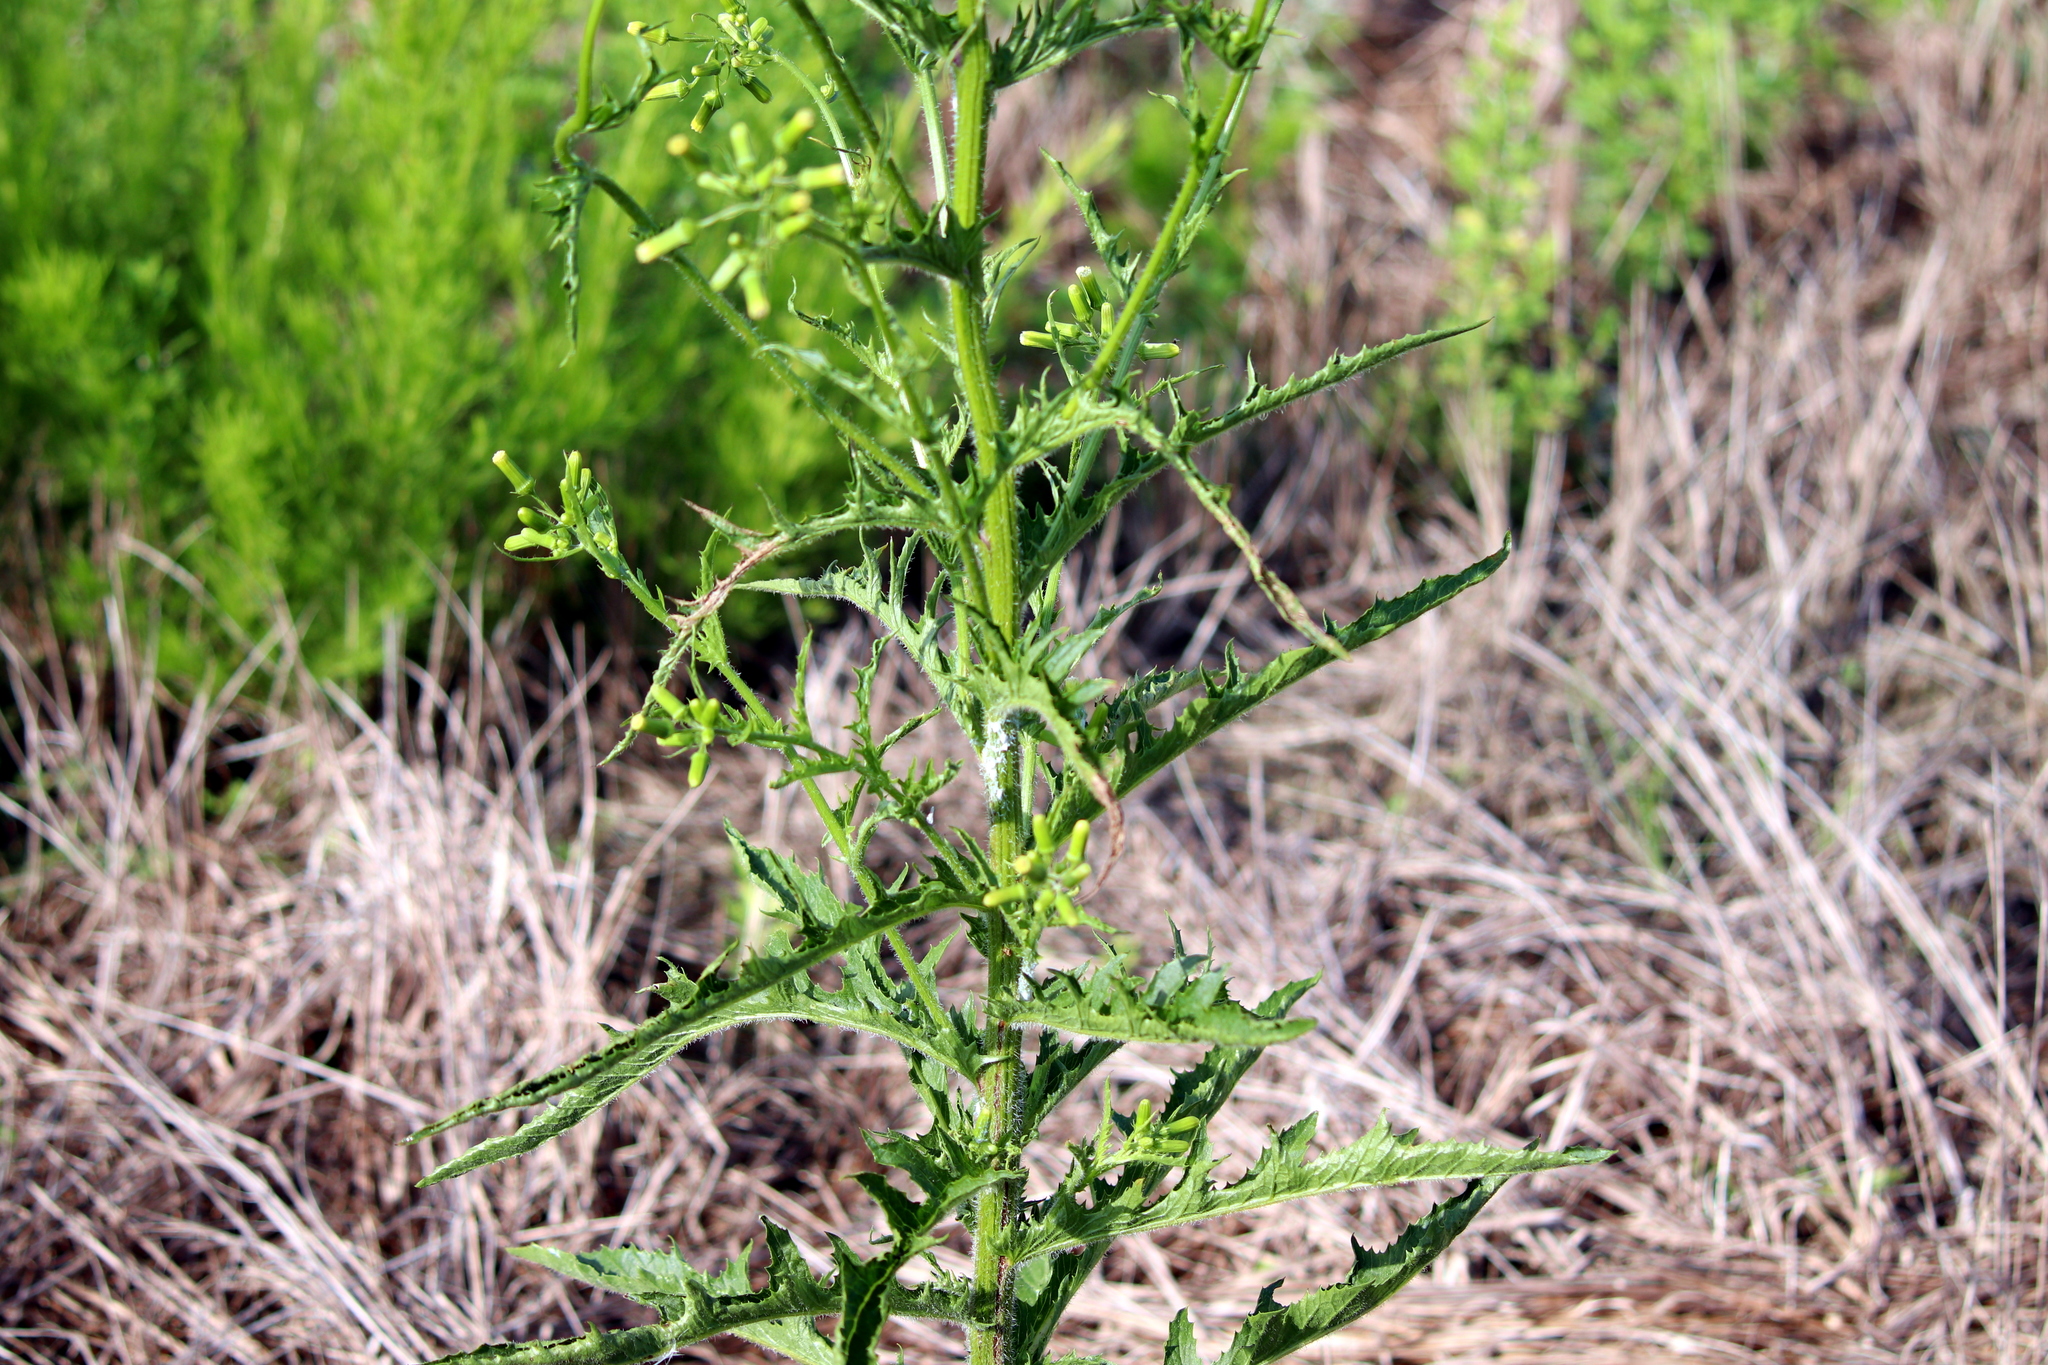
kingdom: Plantae
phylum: Tracheophyta
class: Magnoliopsida
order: Asterales
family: Asteraceae
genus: Erechtites
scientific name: Erechtites hieraciifolius
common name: American burnweed
